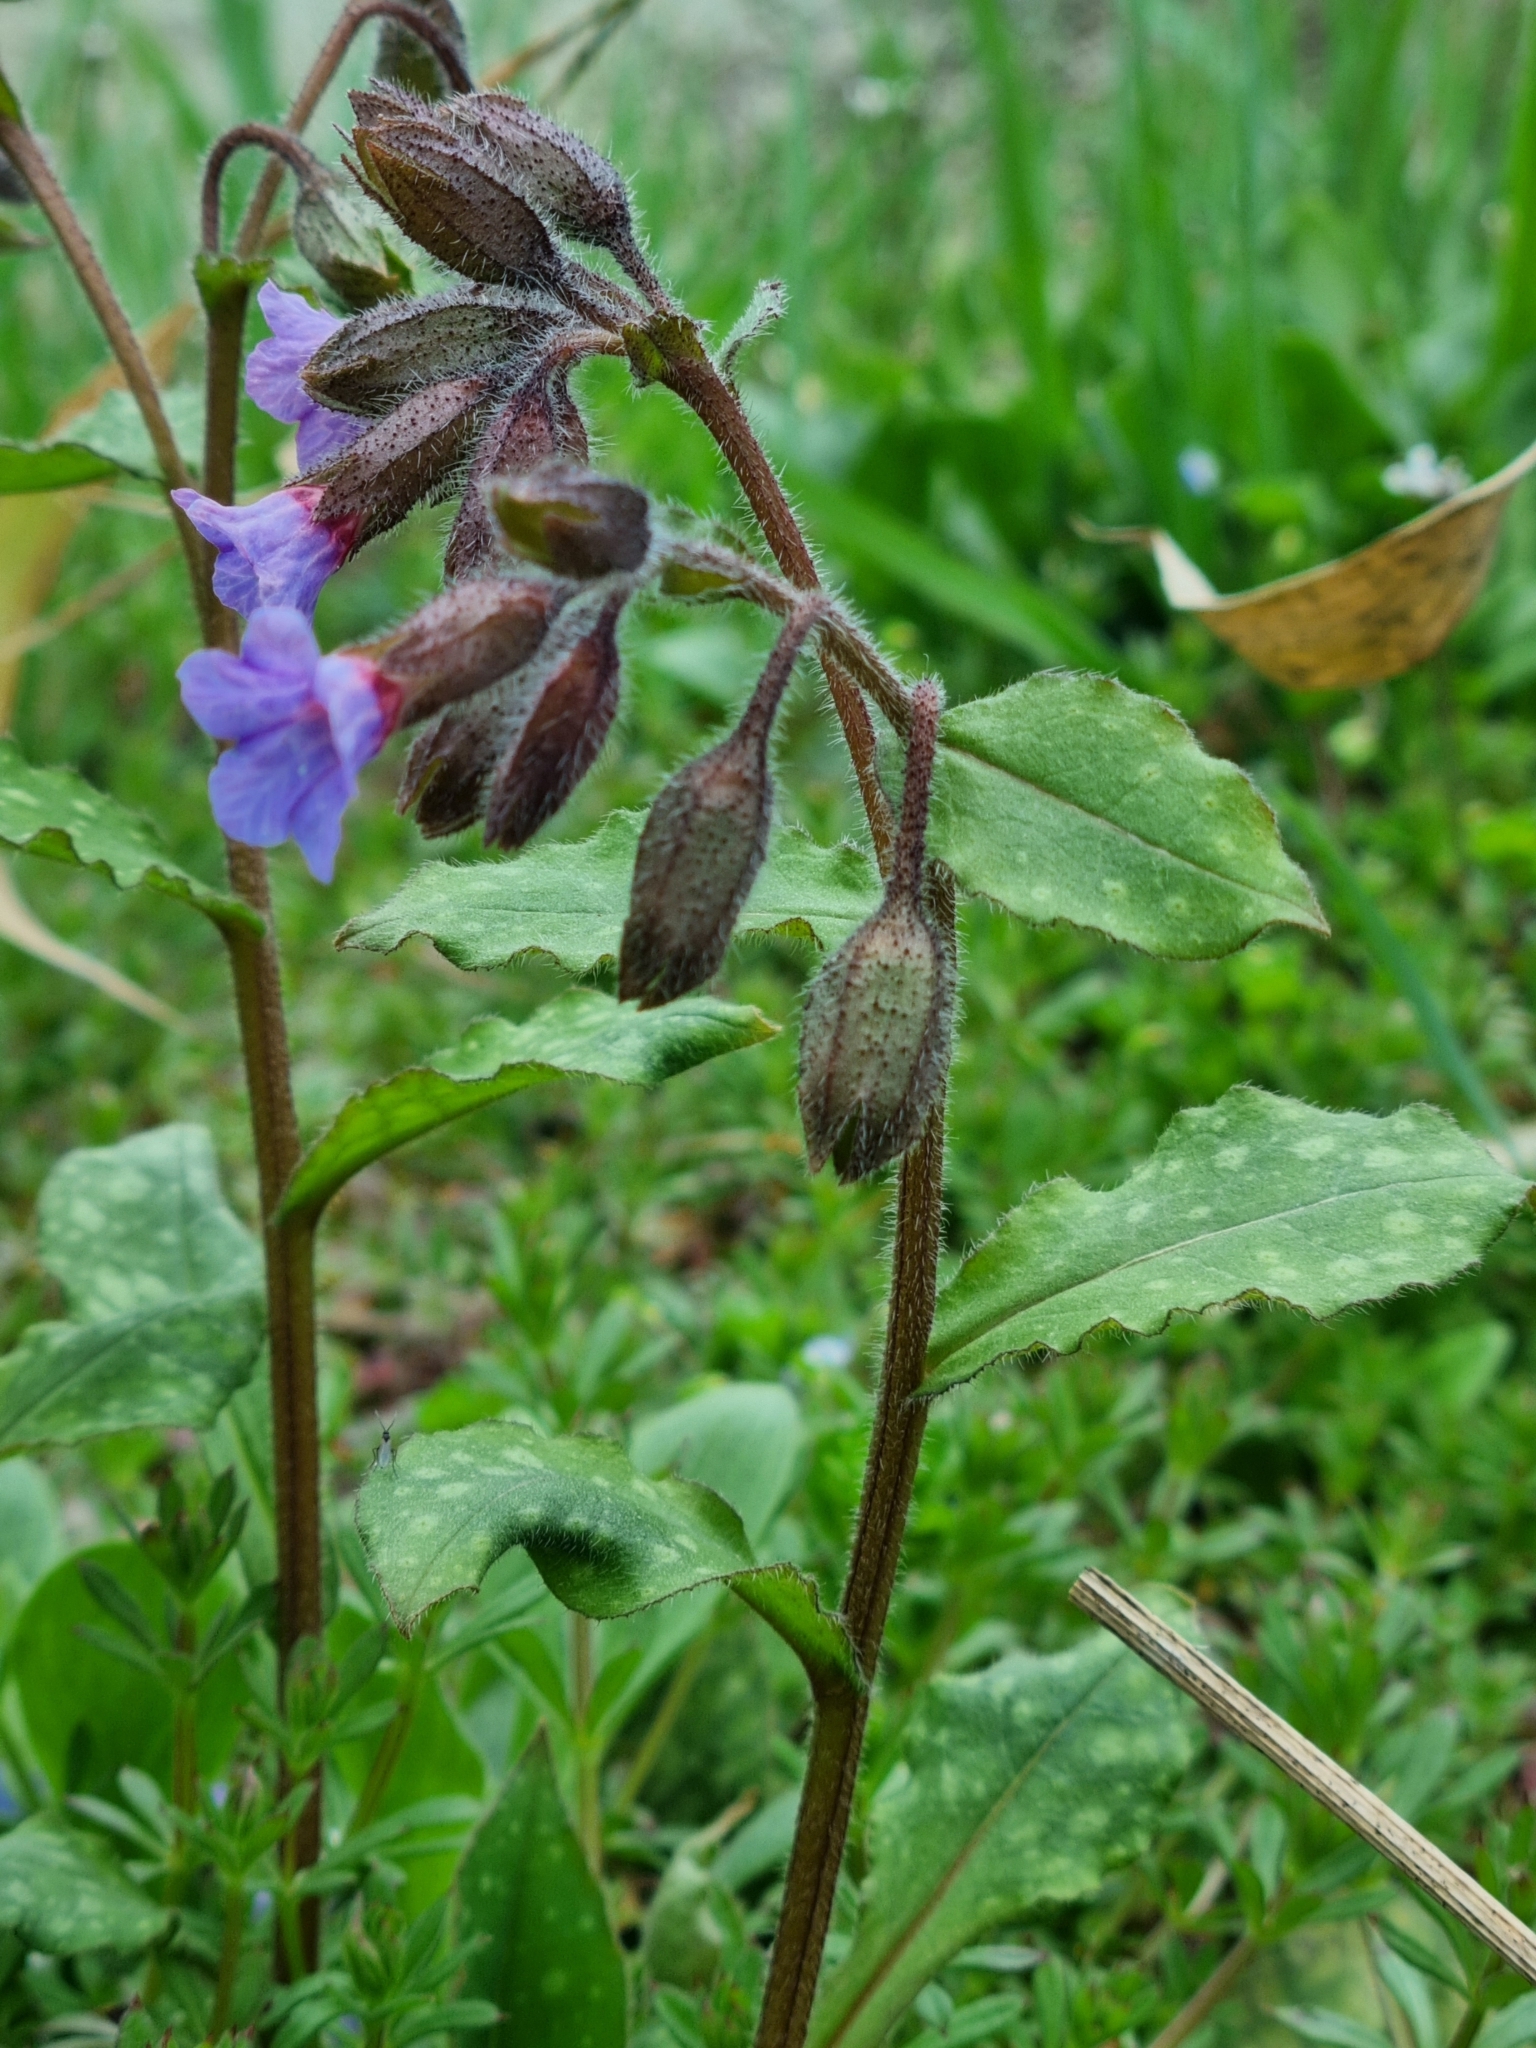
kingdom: Plantae
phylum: Tracheophyta
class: Magnoliopsida
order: Boraginales
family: Boraginaceae
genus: Pulmonaria
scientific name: Pulmonaria officinalis
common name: Lungwort
